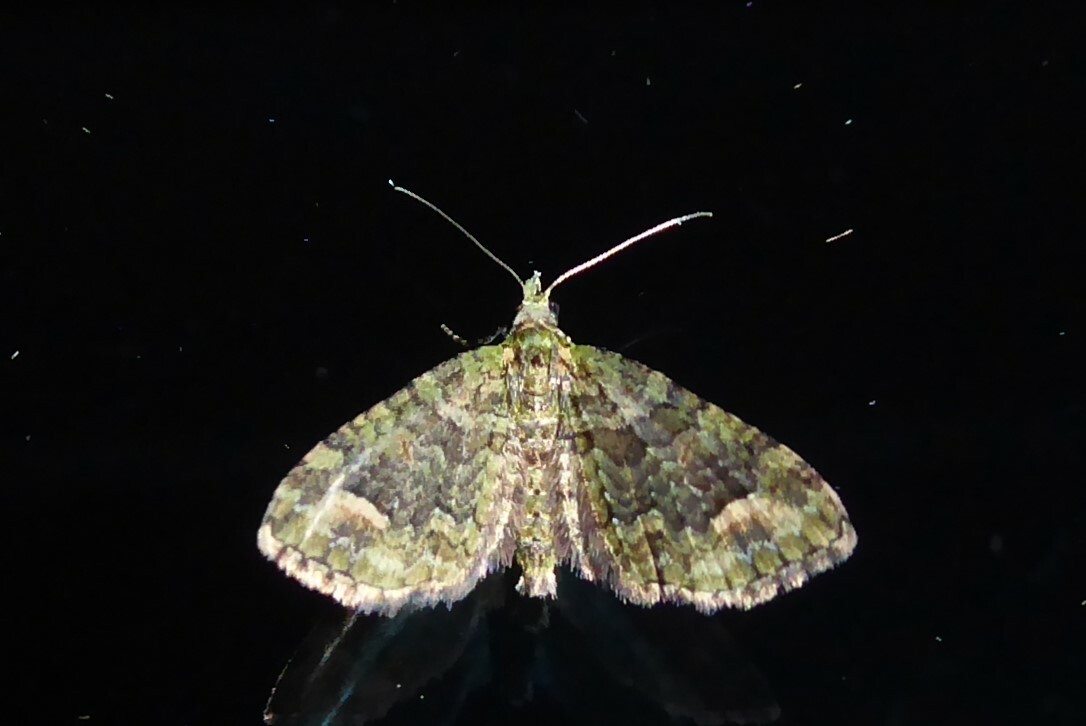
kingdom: Animalia
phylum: Arthropoda
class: Insecta
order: Lepidoptera
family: Geometridae
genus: Idaea
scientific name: Idaea mutanda
